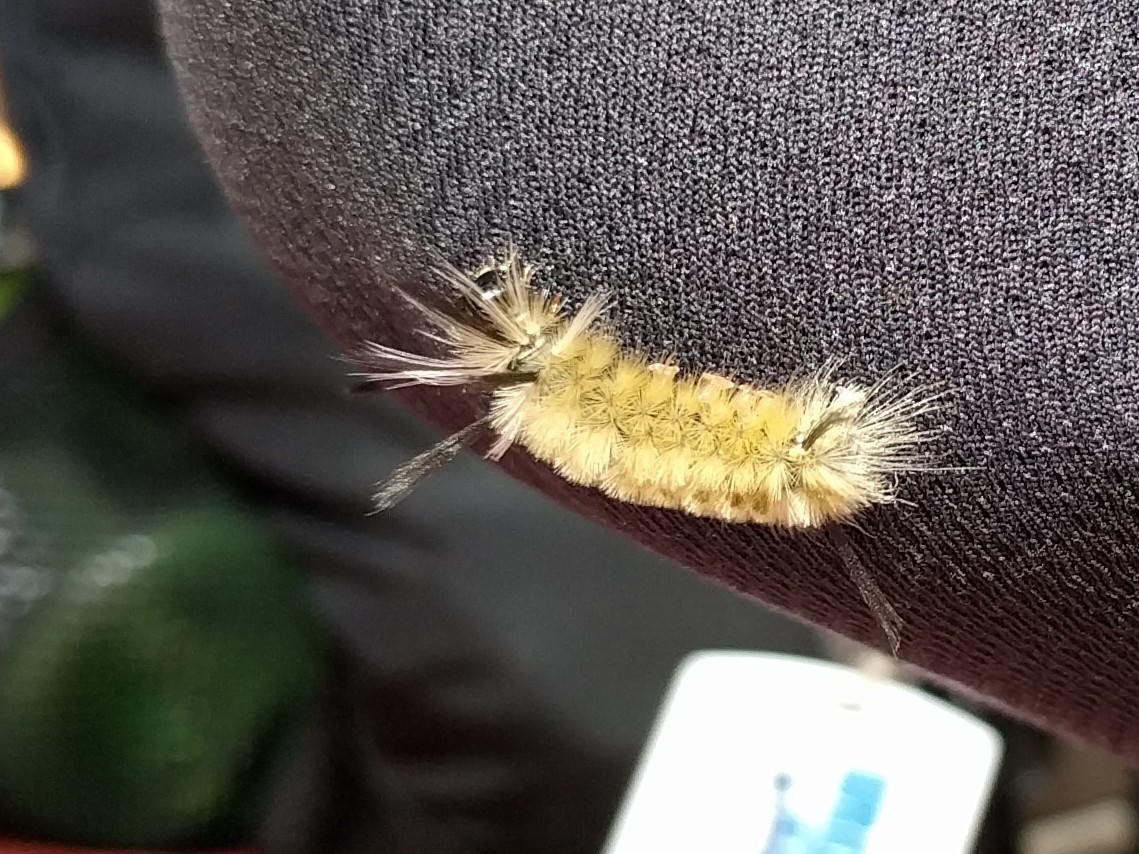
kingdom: Animalia
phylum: Arthropoda
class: Insecta
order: Lepidoptera
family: Erebidae
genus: Halysidota
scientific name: Halysidota tessellaris
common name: Banded tussock moth
